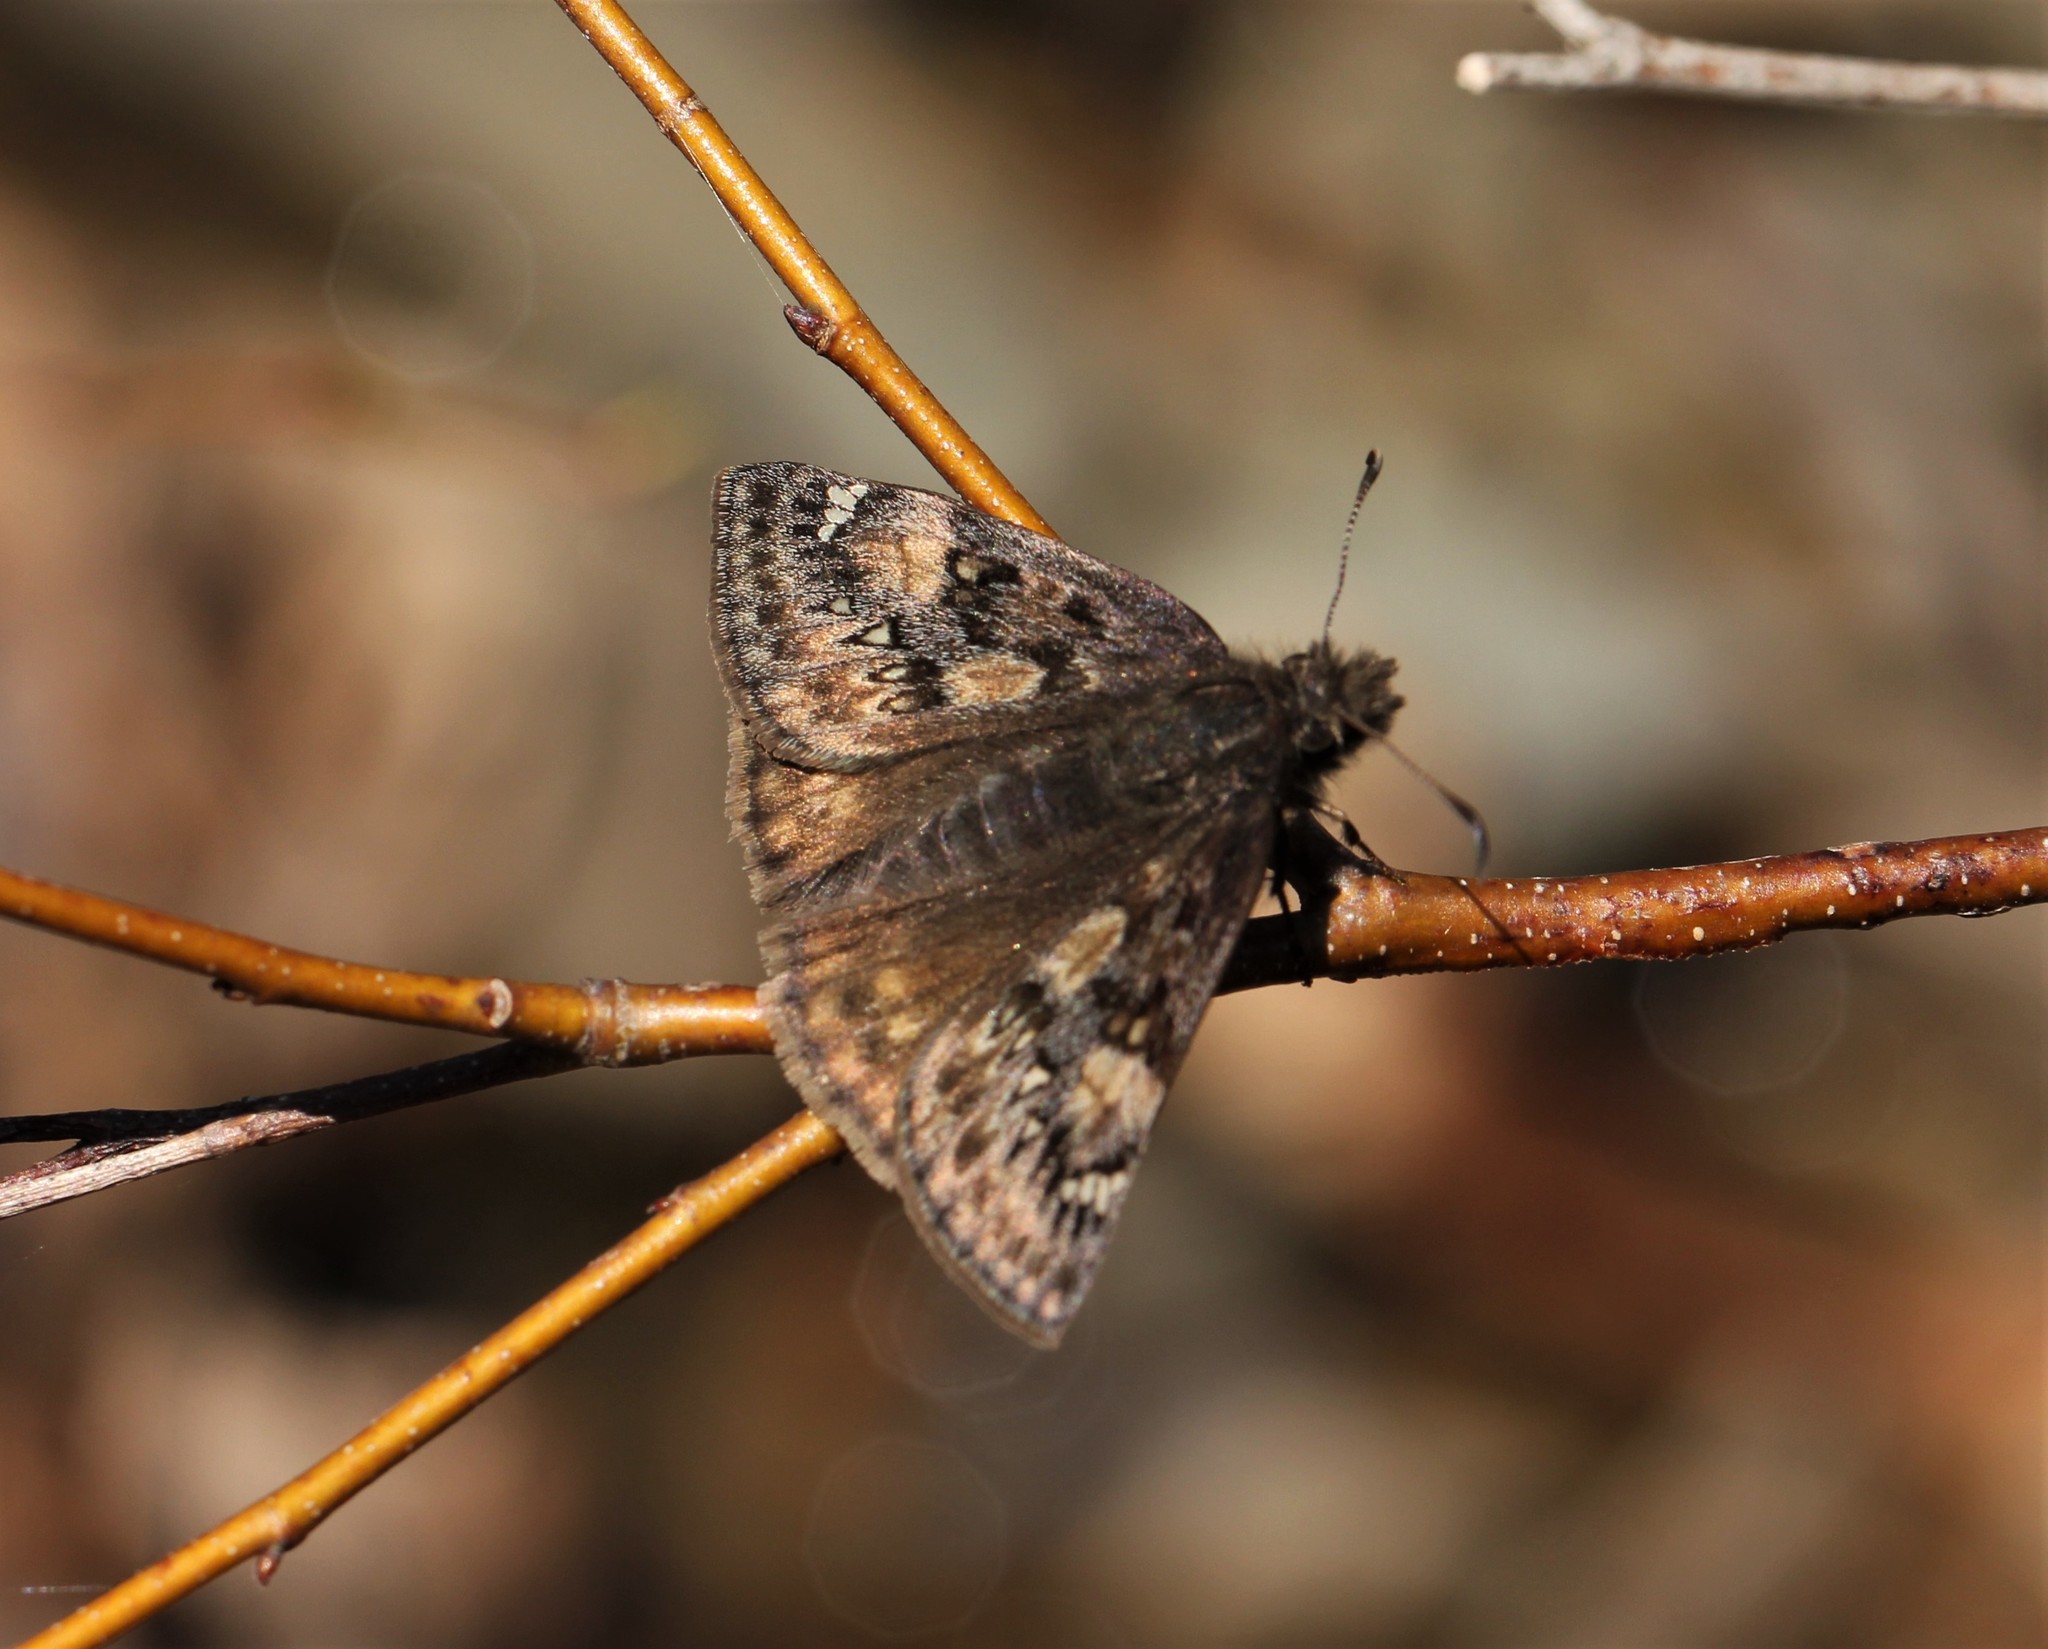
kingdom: Animalia
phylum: Arthropoda
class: Insecta
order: Lepidoptera
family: Hesperiidae
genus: Erynnis
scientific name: Erynnis juvenalis
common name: Juvenal's duskywing
